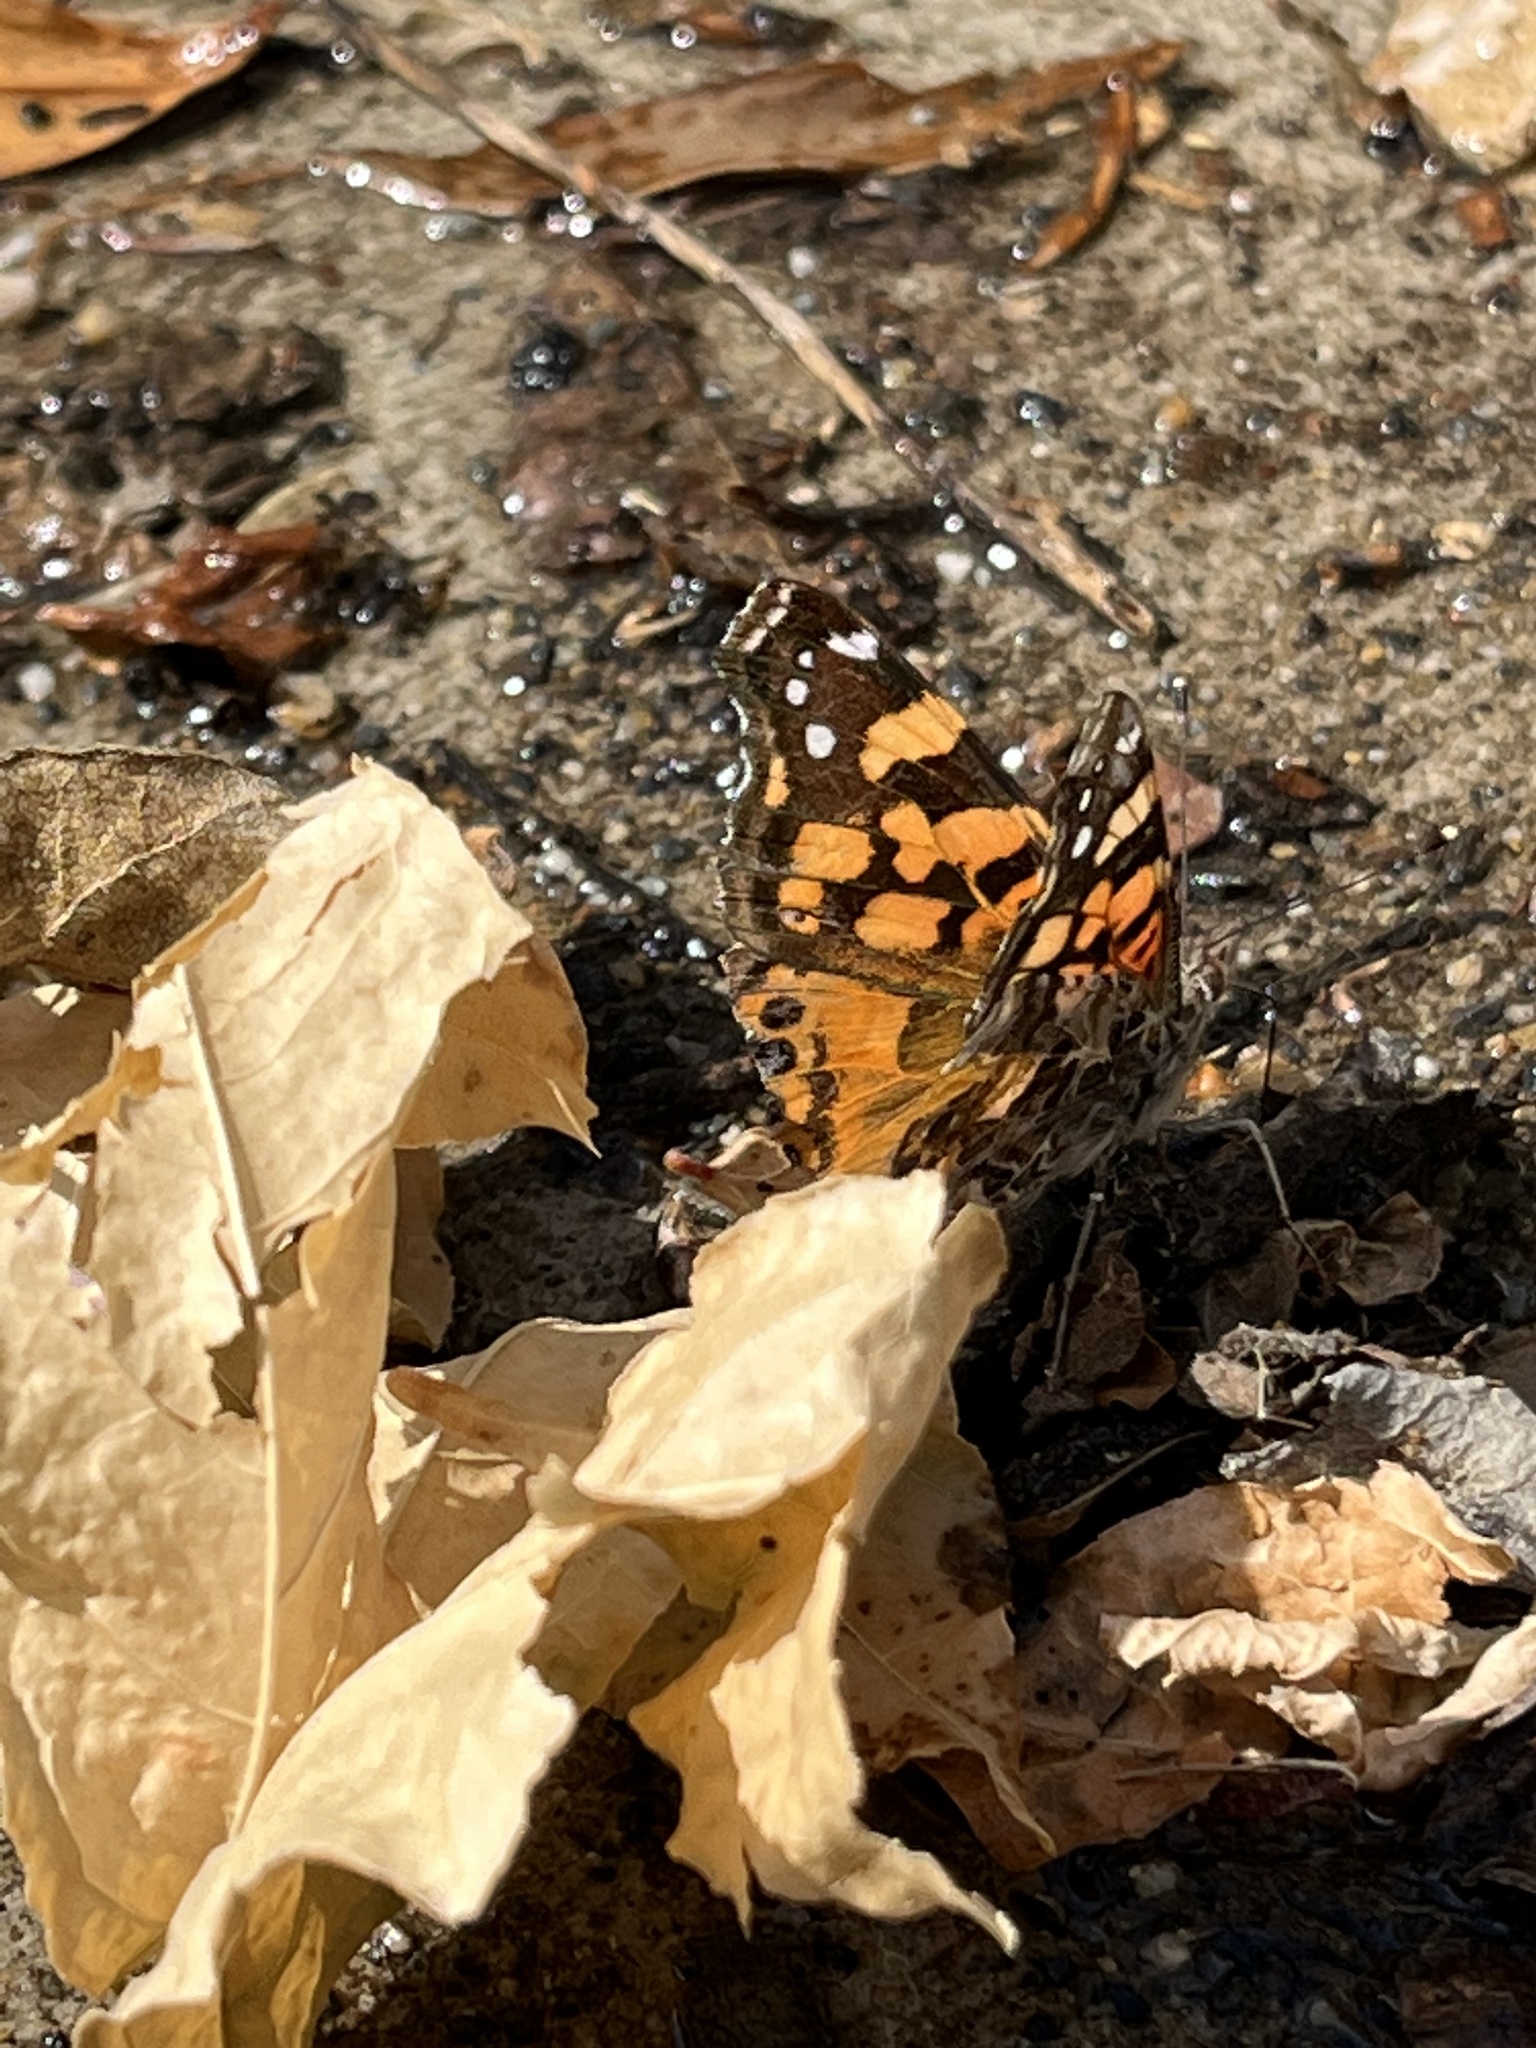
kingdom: Animalia
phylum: Arthropoda
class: Insecta
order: Lepidoptera
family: Nymphalidae
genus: Vanessa
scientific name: Vanessa annabella
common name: West coast lady
